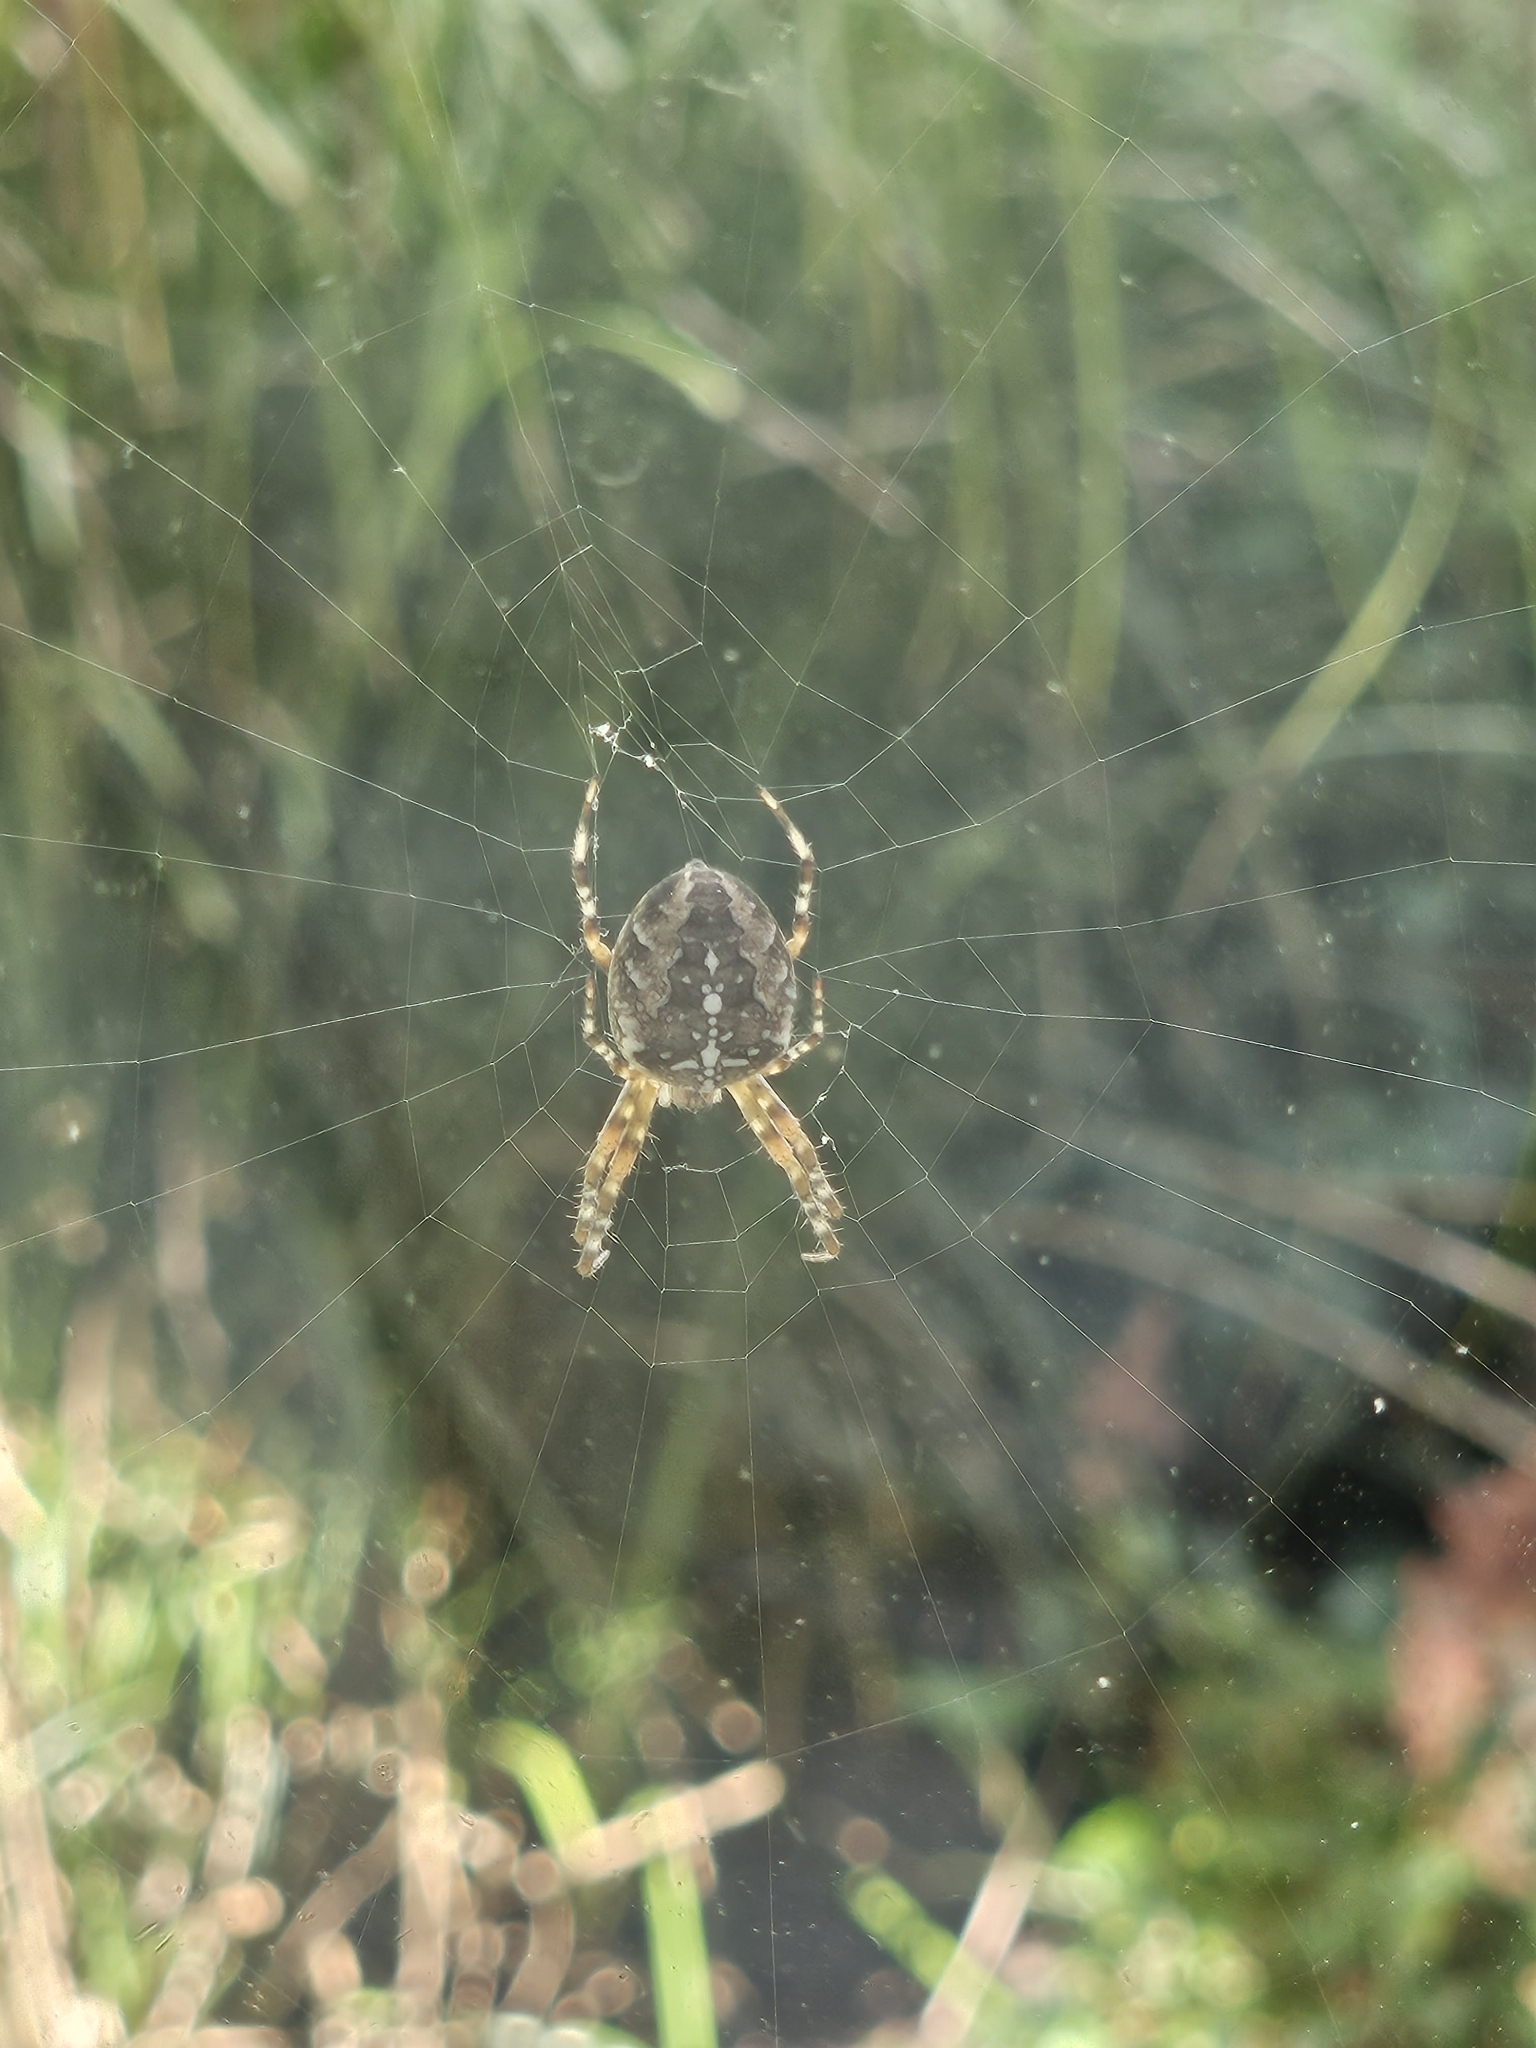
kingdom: Animalia
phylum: Arthropoda
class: Arachnida
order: Araneae
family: Araneidae
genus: Araneus
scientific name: Araneus diadematus
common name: Cross orbweaver
